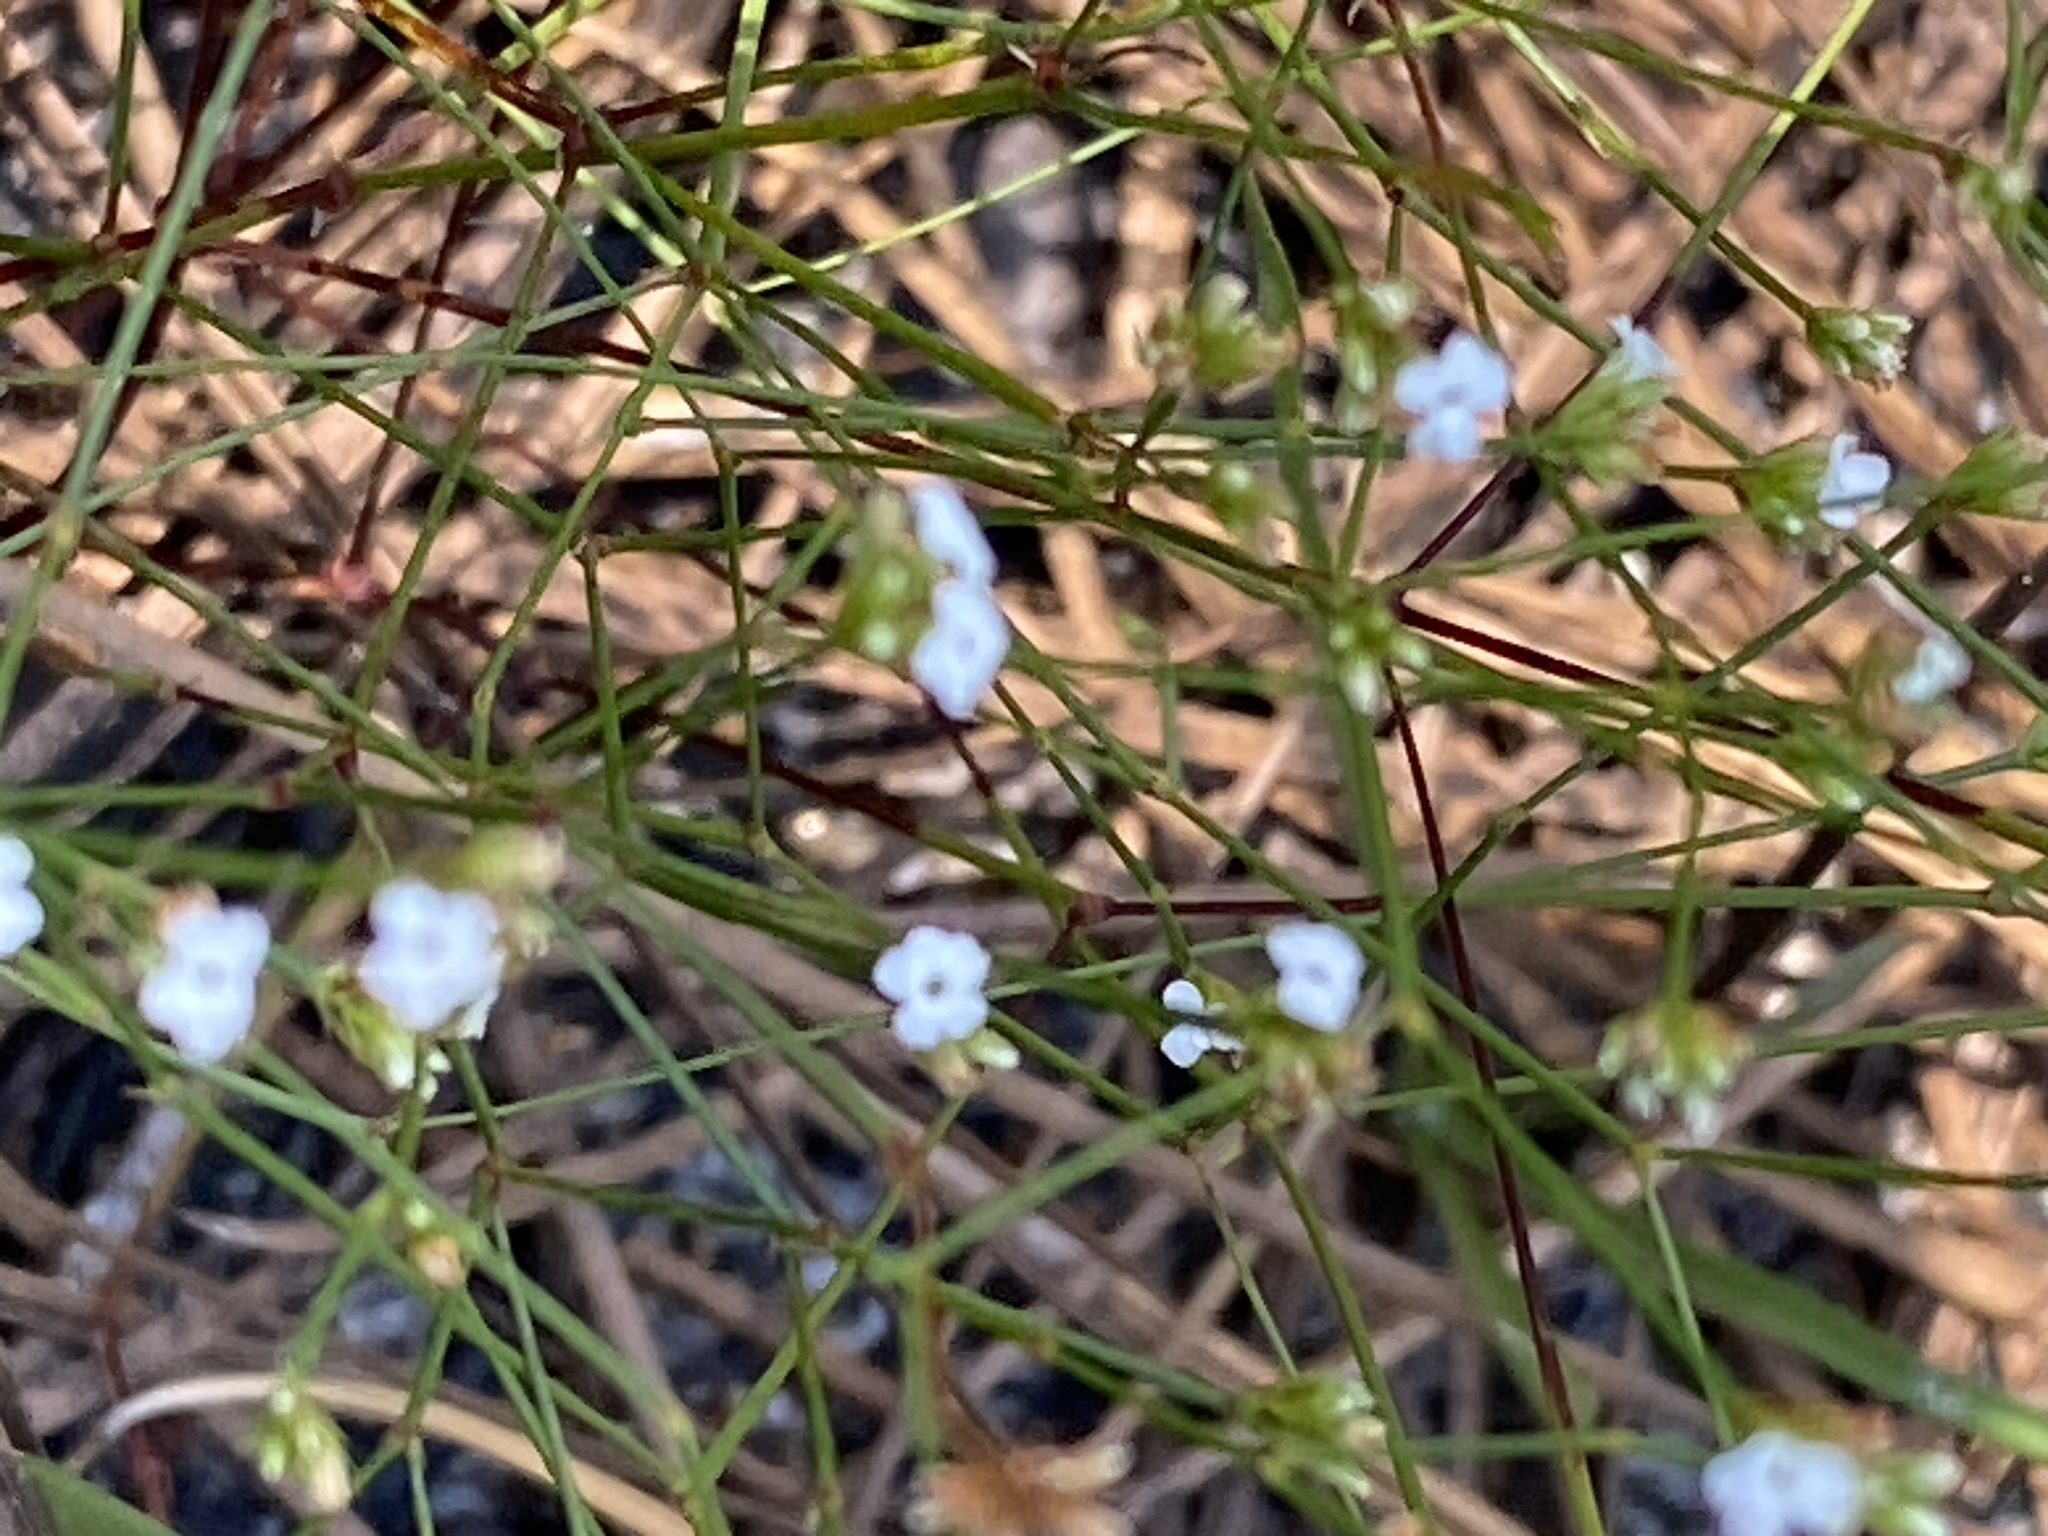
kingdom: Plantae
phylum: Tracheophyta
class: Magnoliopsida
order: Caryophyllales
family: Caryophyllaceae
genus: Stipulicida
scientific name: Stipulicida setacea
